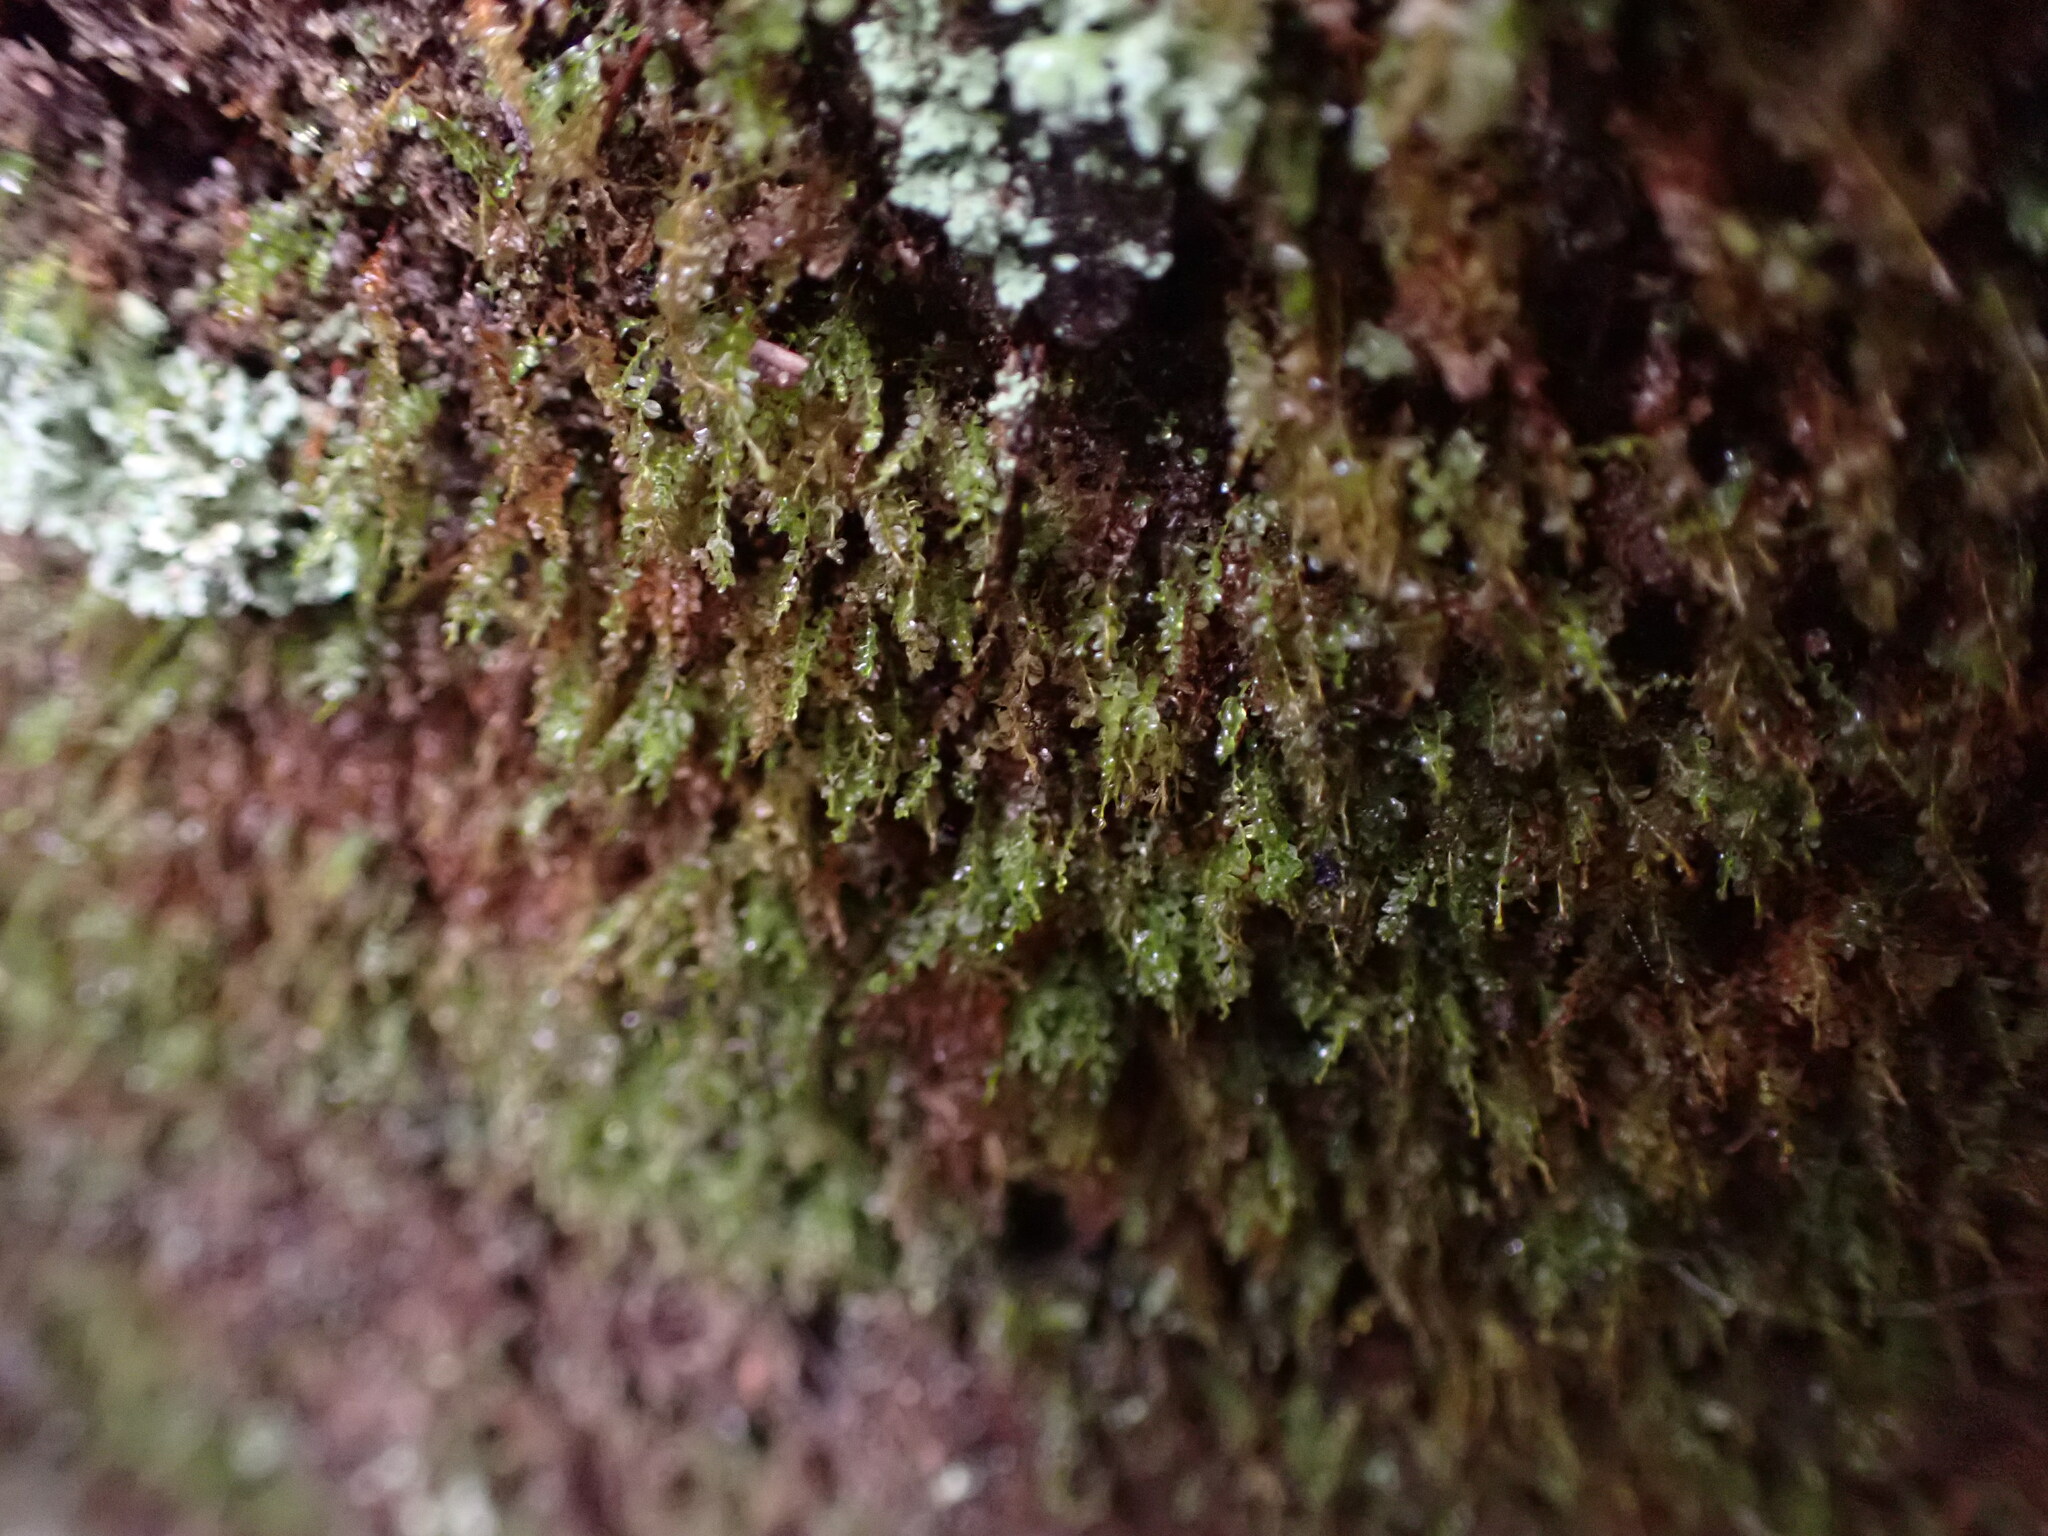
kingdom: Plantae
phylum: Bryophyta
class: Polytrichopsida
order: Tetraphidales
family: Tetraphidaceae
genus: Tetraphis
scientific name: Tetraphis pellucida
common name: Common four-toothed moss
